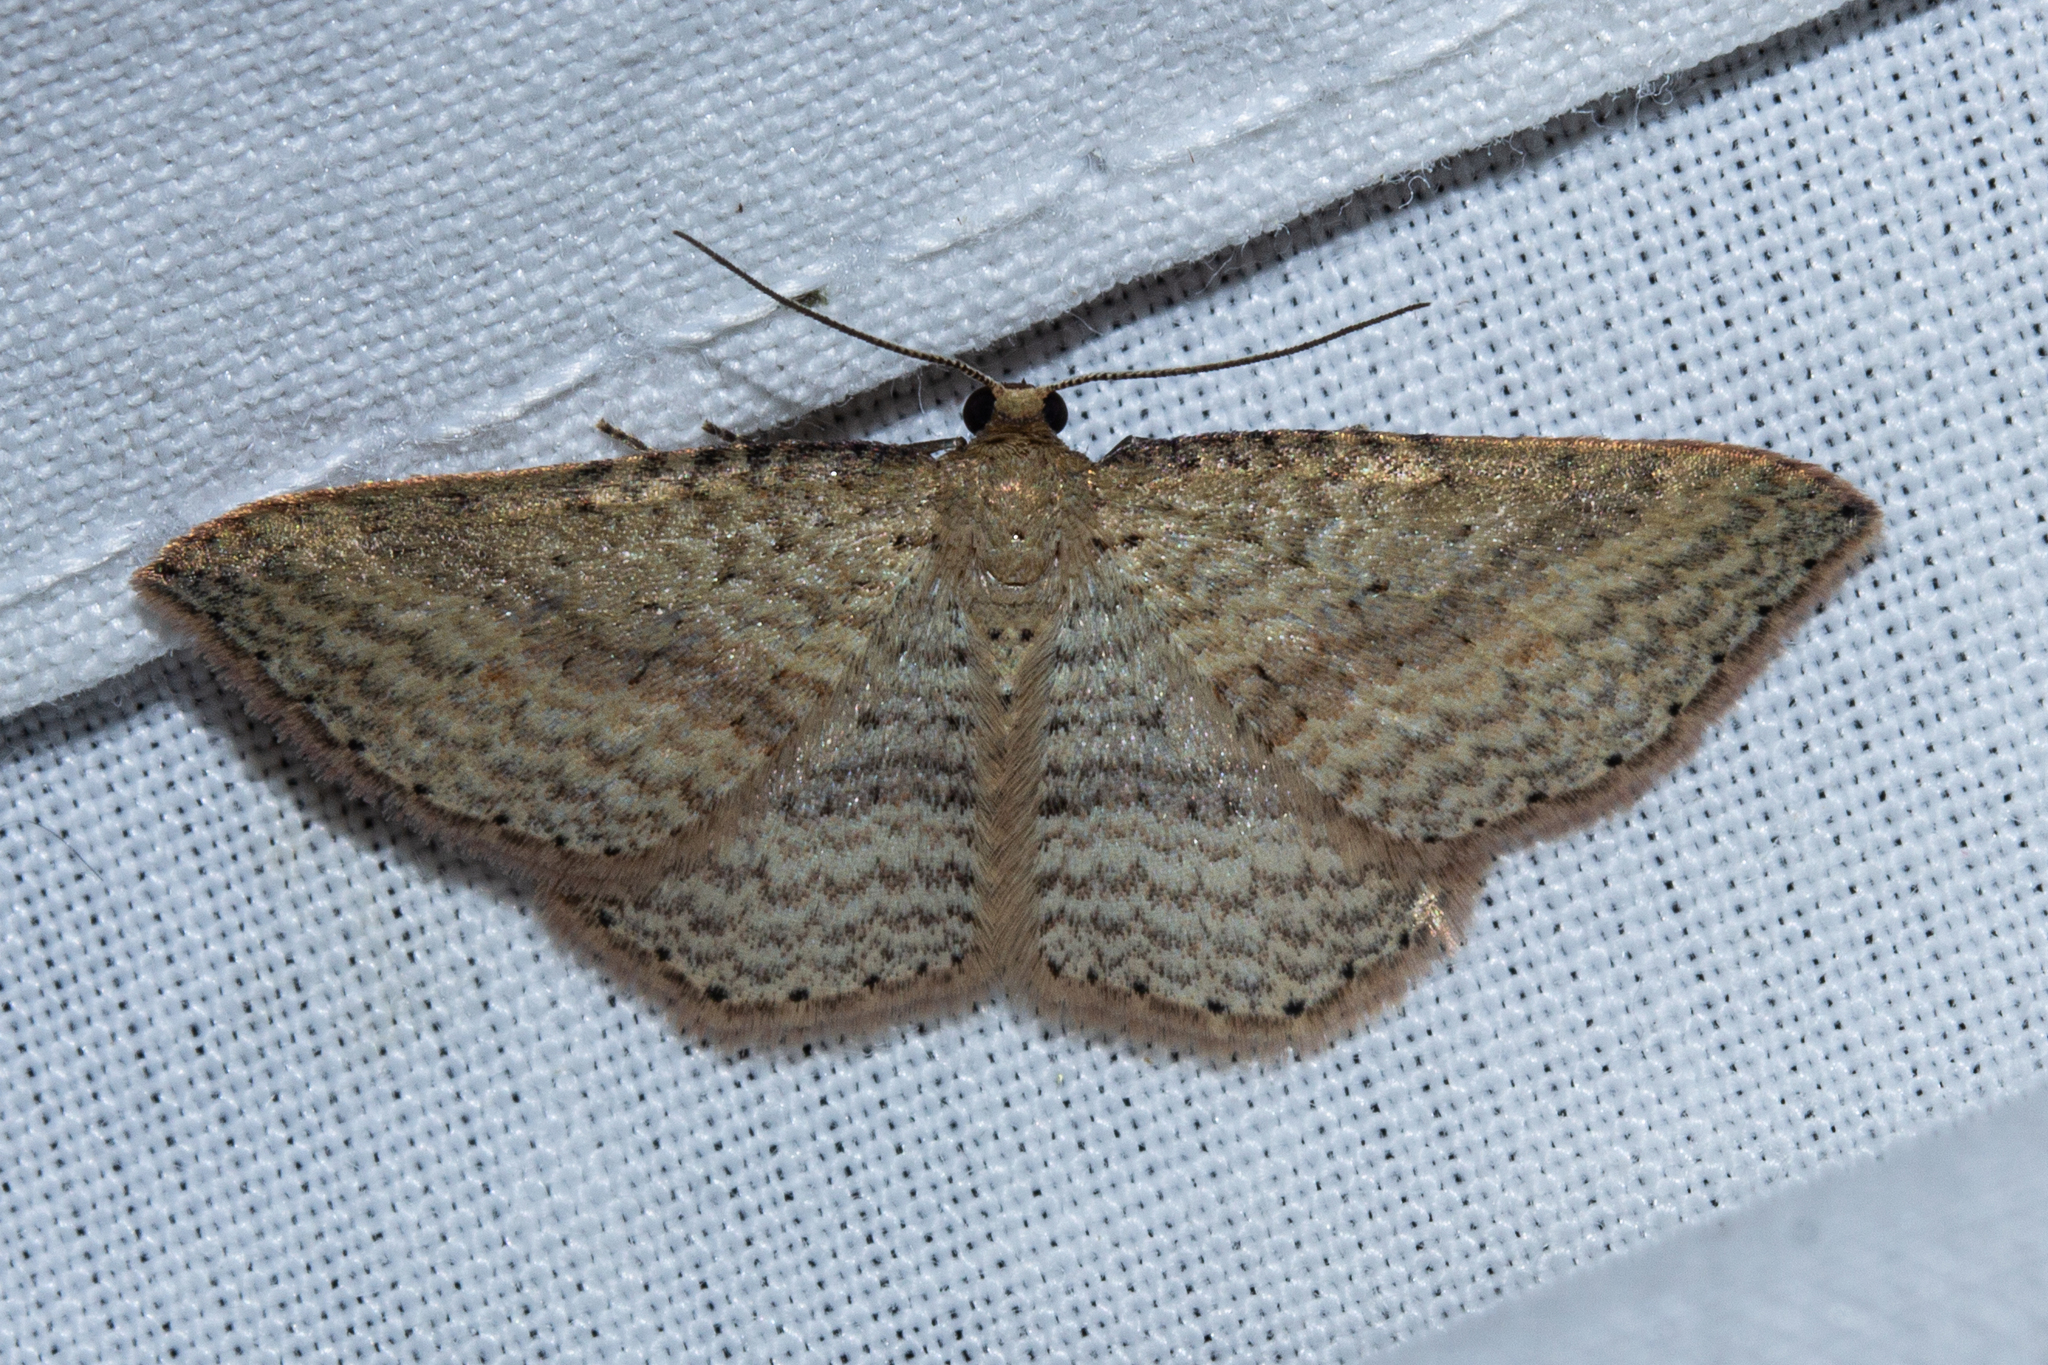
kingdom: Animalia
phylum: Arthropoda
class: Insecta
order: Lepidoptera
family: Geometridae
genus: Epicyme
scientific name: Epicyme rubropunctaria
